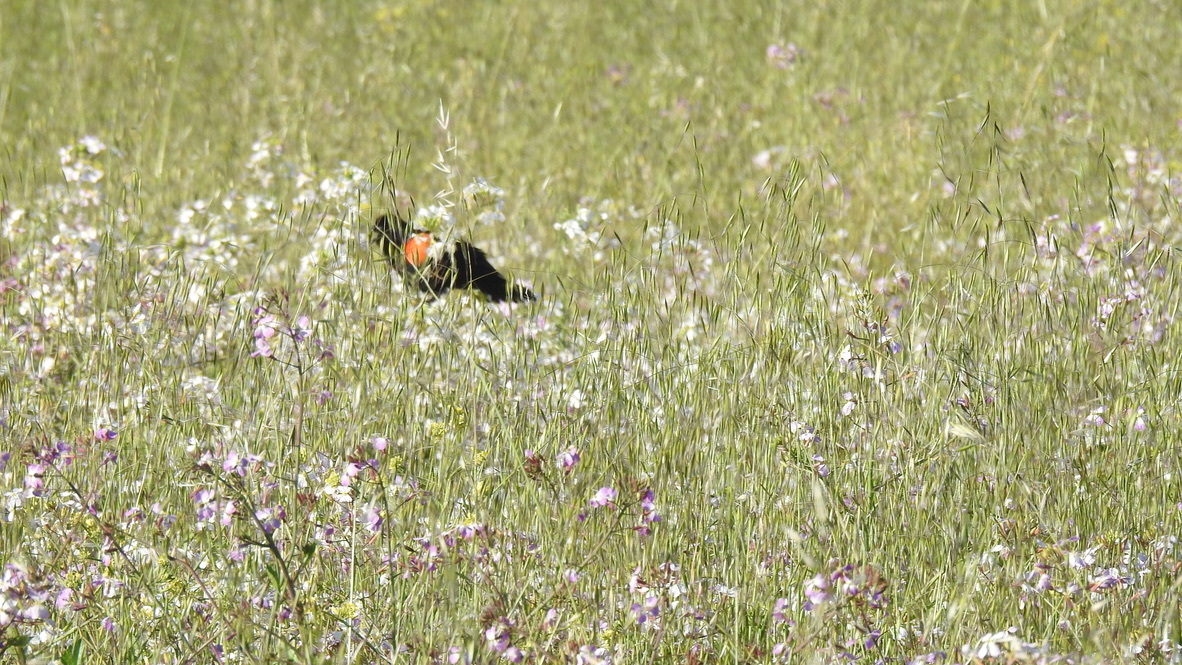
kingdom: Animalia
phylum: Chordata
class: Aves
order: Passeriformes
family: Icteridae
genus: Agelaius
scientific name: Agelaius phoeniceus
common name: Red-winged blackbird
